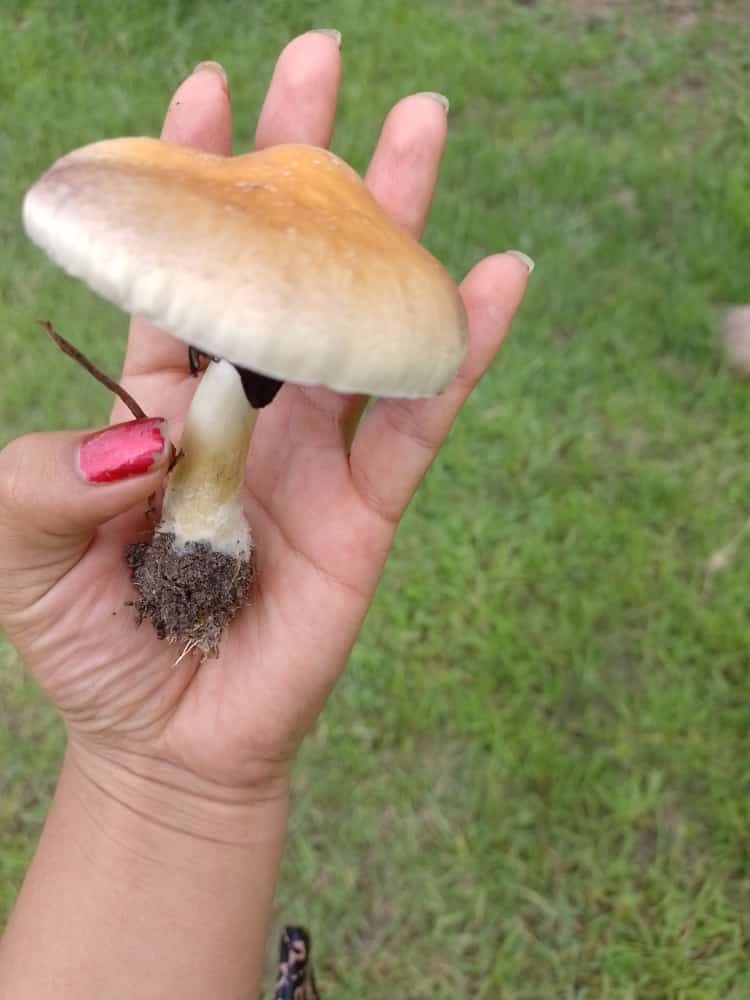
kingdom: Fungi
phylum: Basidiomycota
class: Agaricomycetes
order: Agaricales
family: Hymenogastraceae
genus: Psilocybe
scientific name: Psilocybe cubensis
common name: Golden brownie
